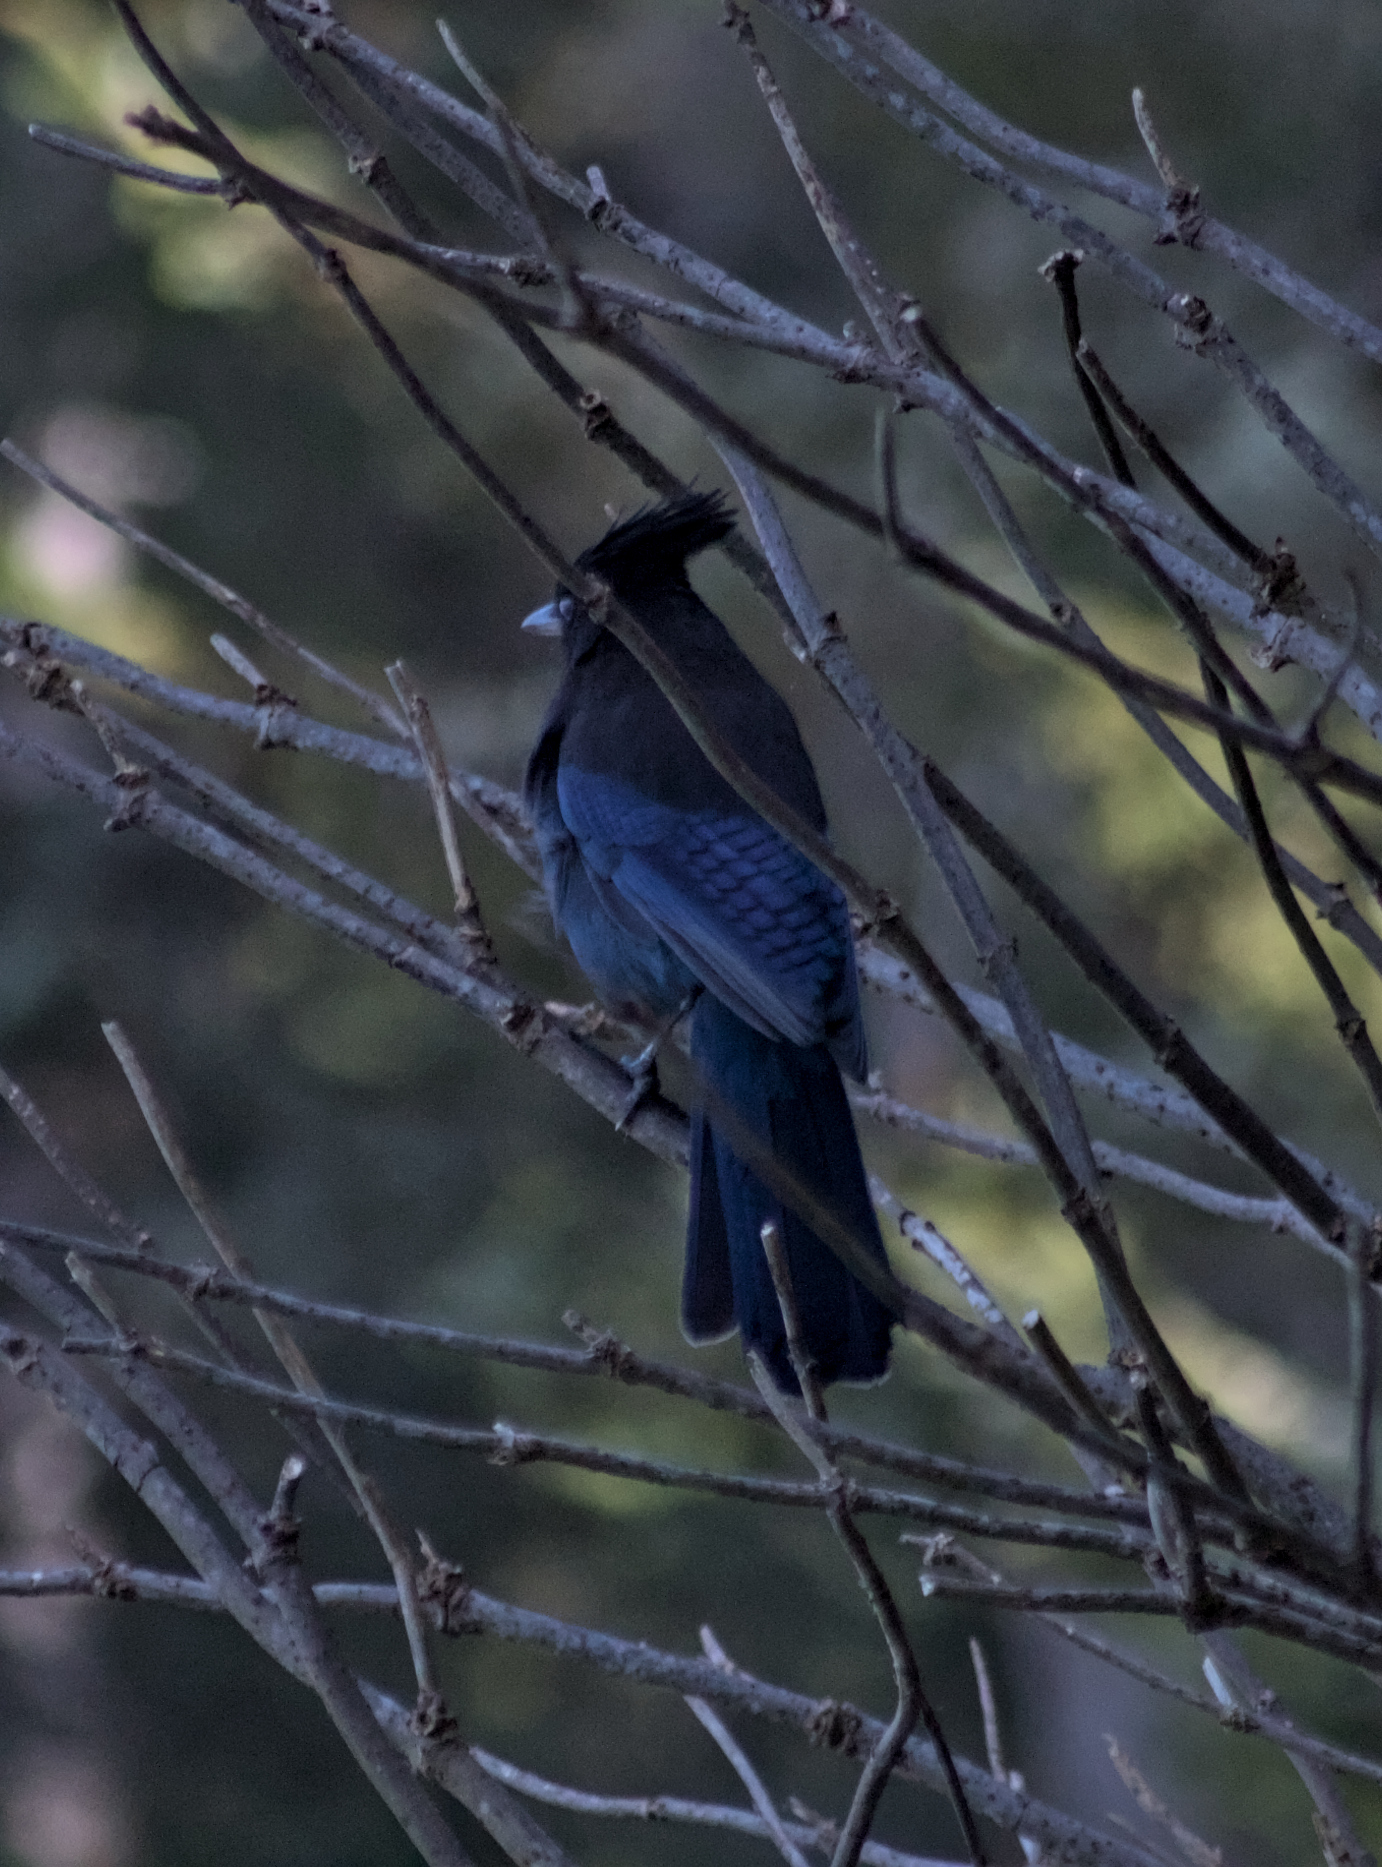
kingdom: Animalia
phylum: Chordata
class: Aves
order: Passeriformes
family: Corvidae
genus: Cyanocitta
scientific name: Cyanocitta stelleri
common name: Steller's jay
